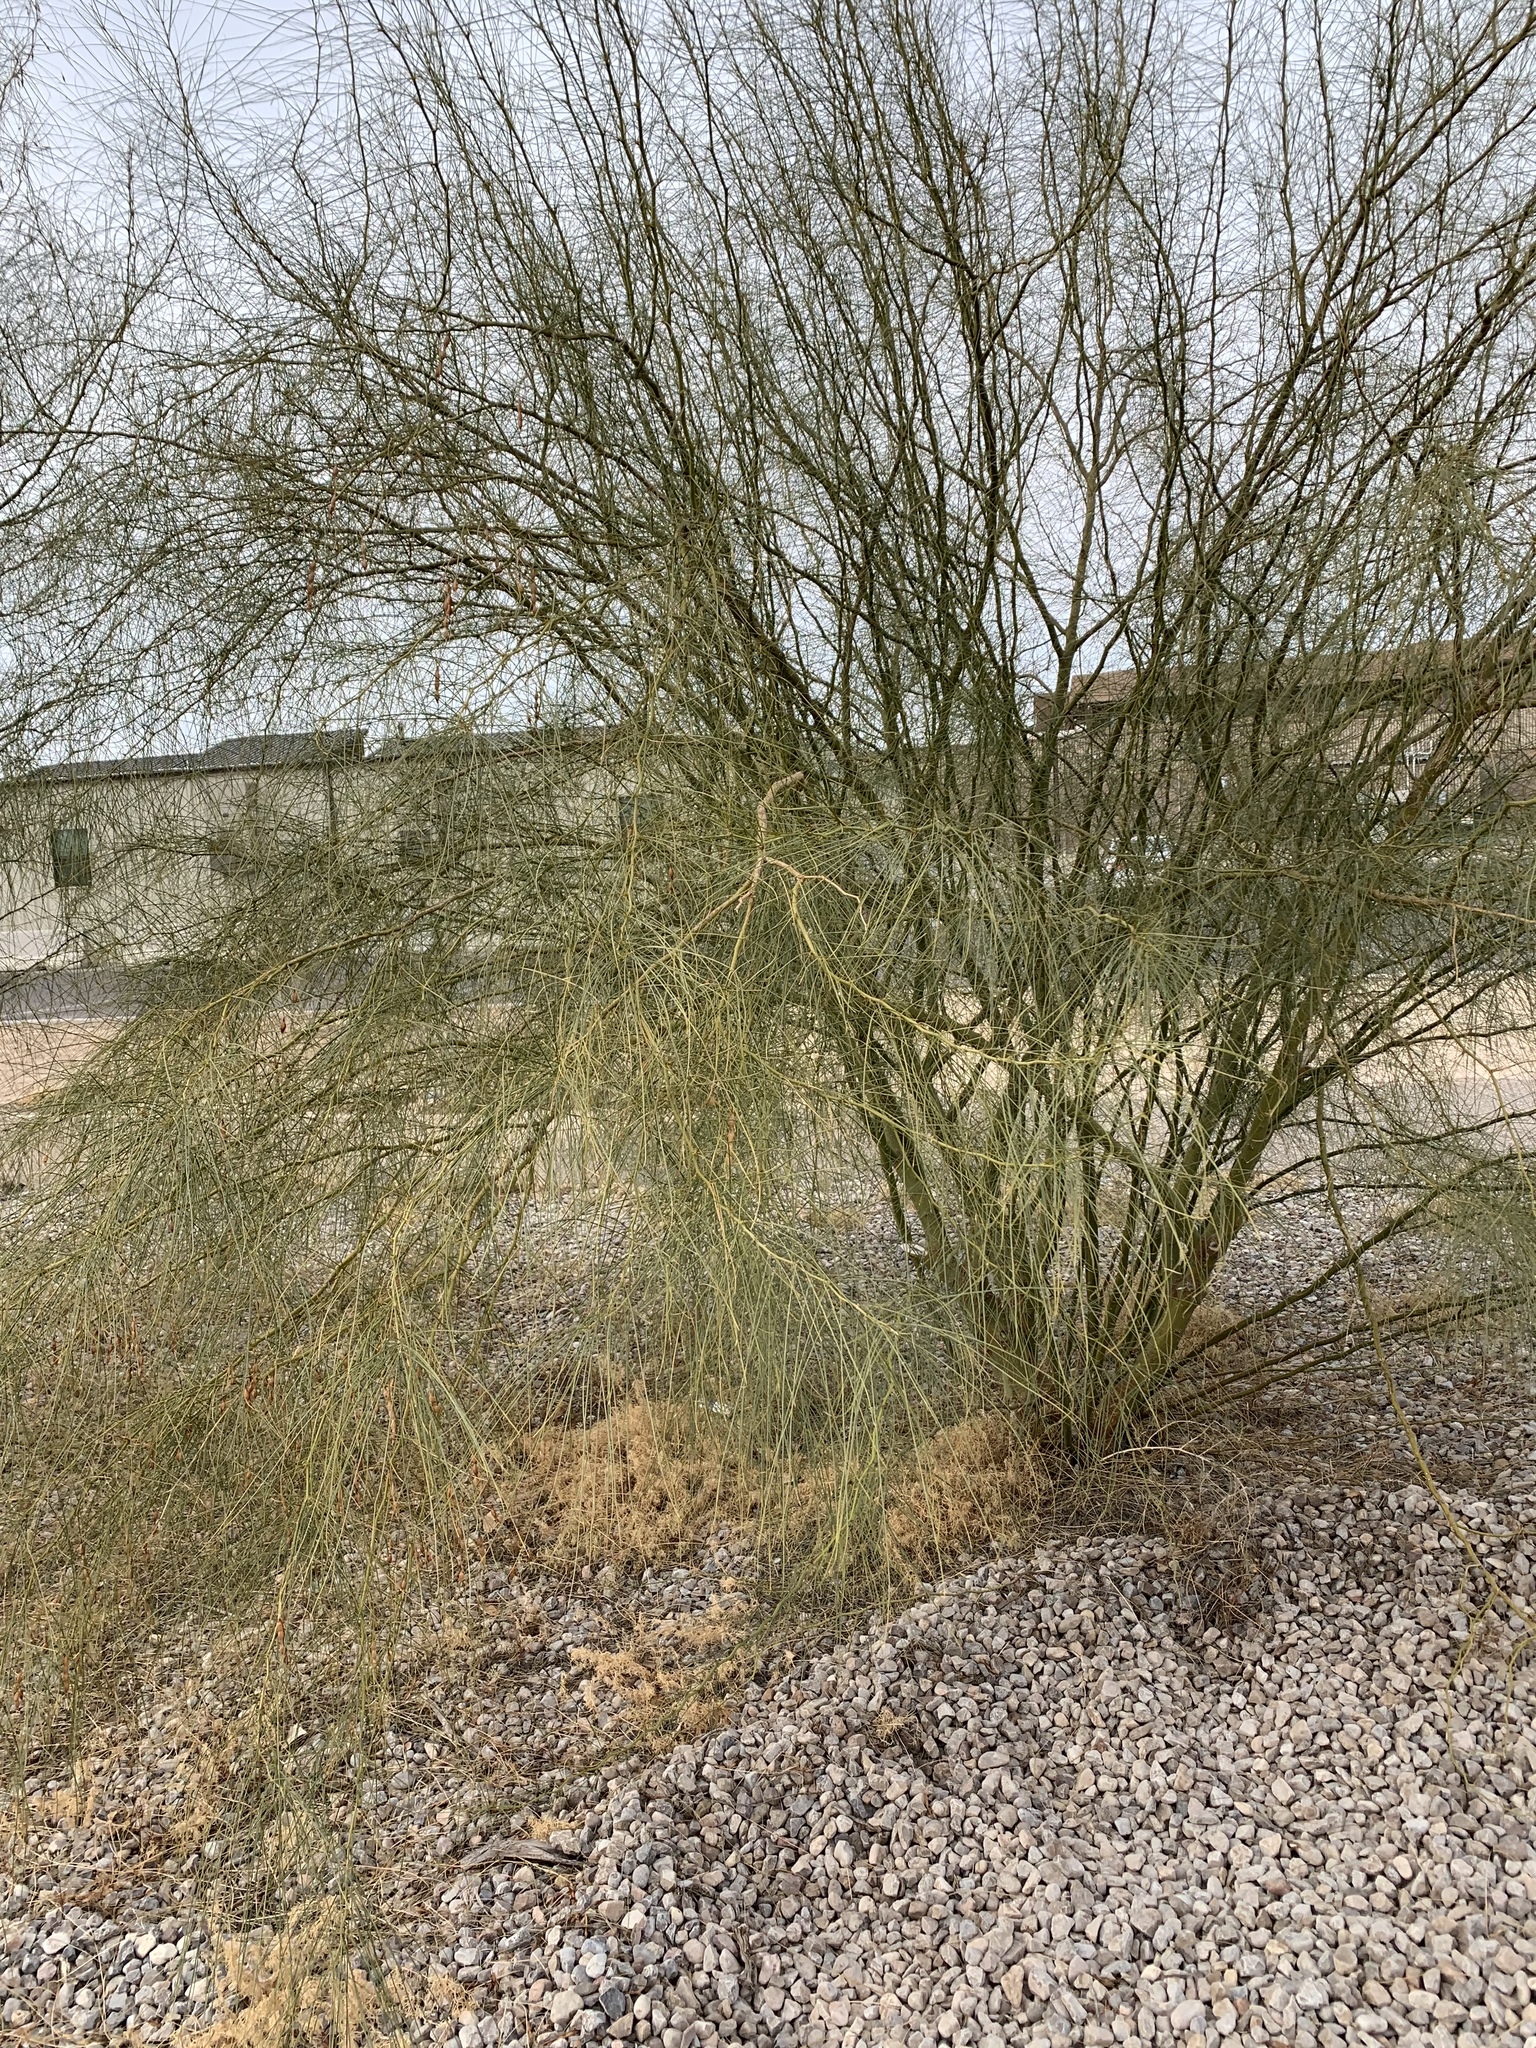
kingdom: Plantae
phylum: Tracheophyta
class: Magnoliopsida
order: Fabales
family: Fabaceae
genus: Parkinsonia
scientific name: Parkinsonia aculeata
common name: Jerusalem thorn
